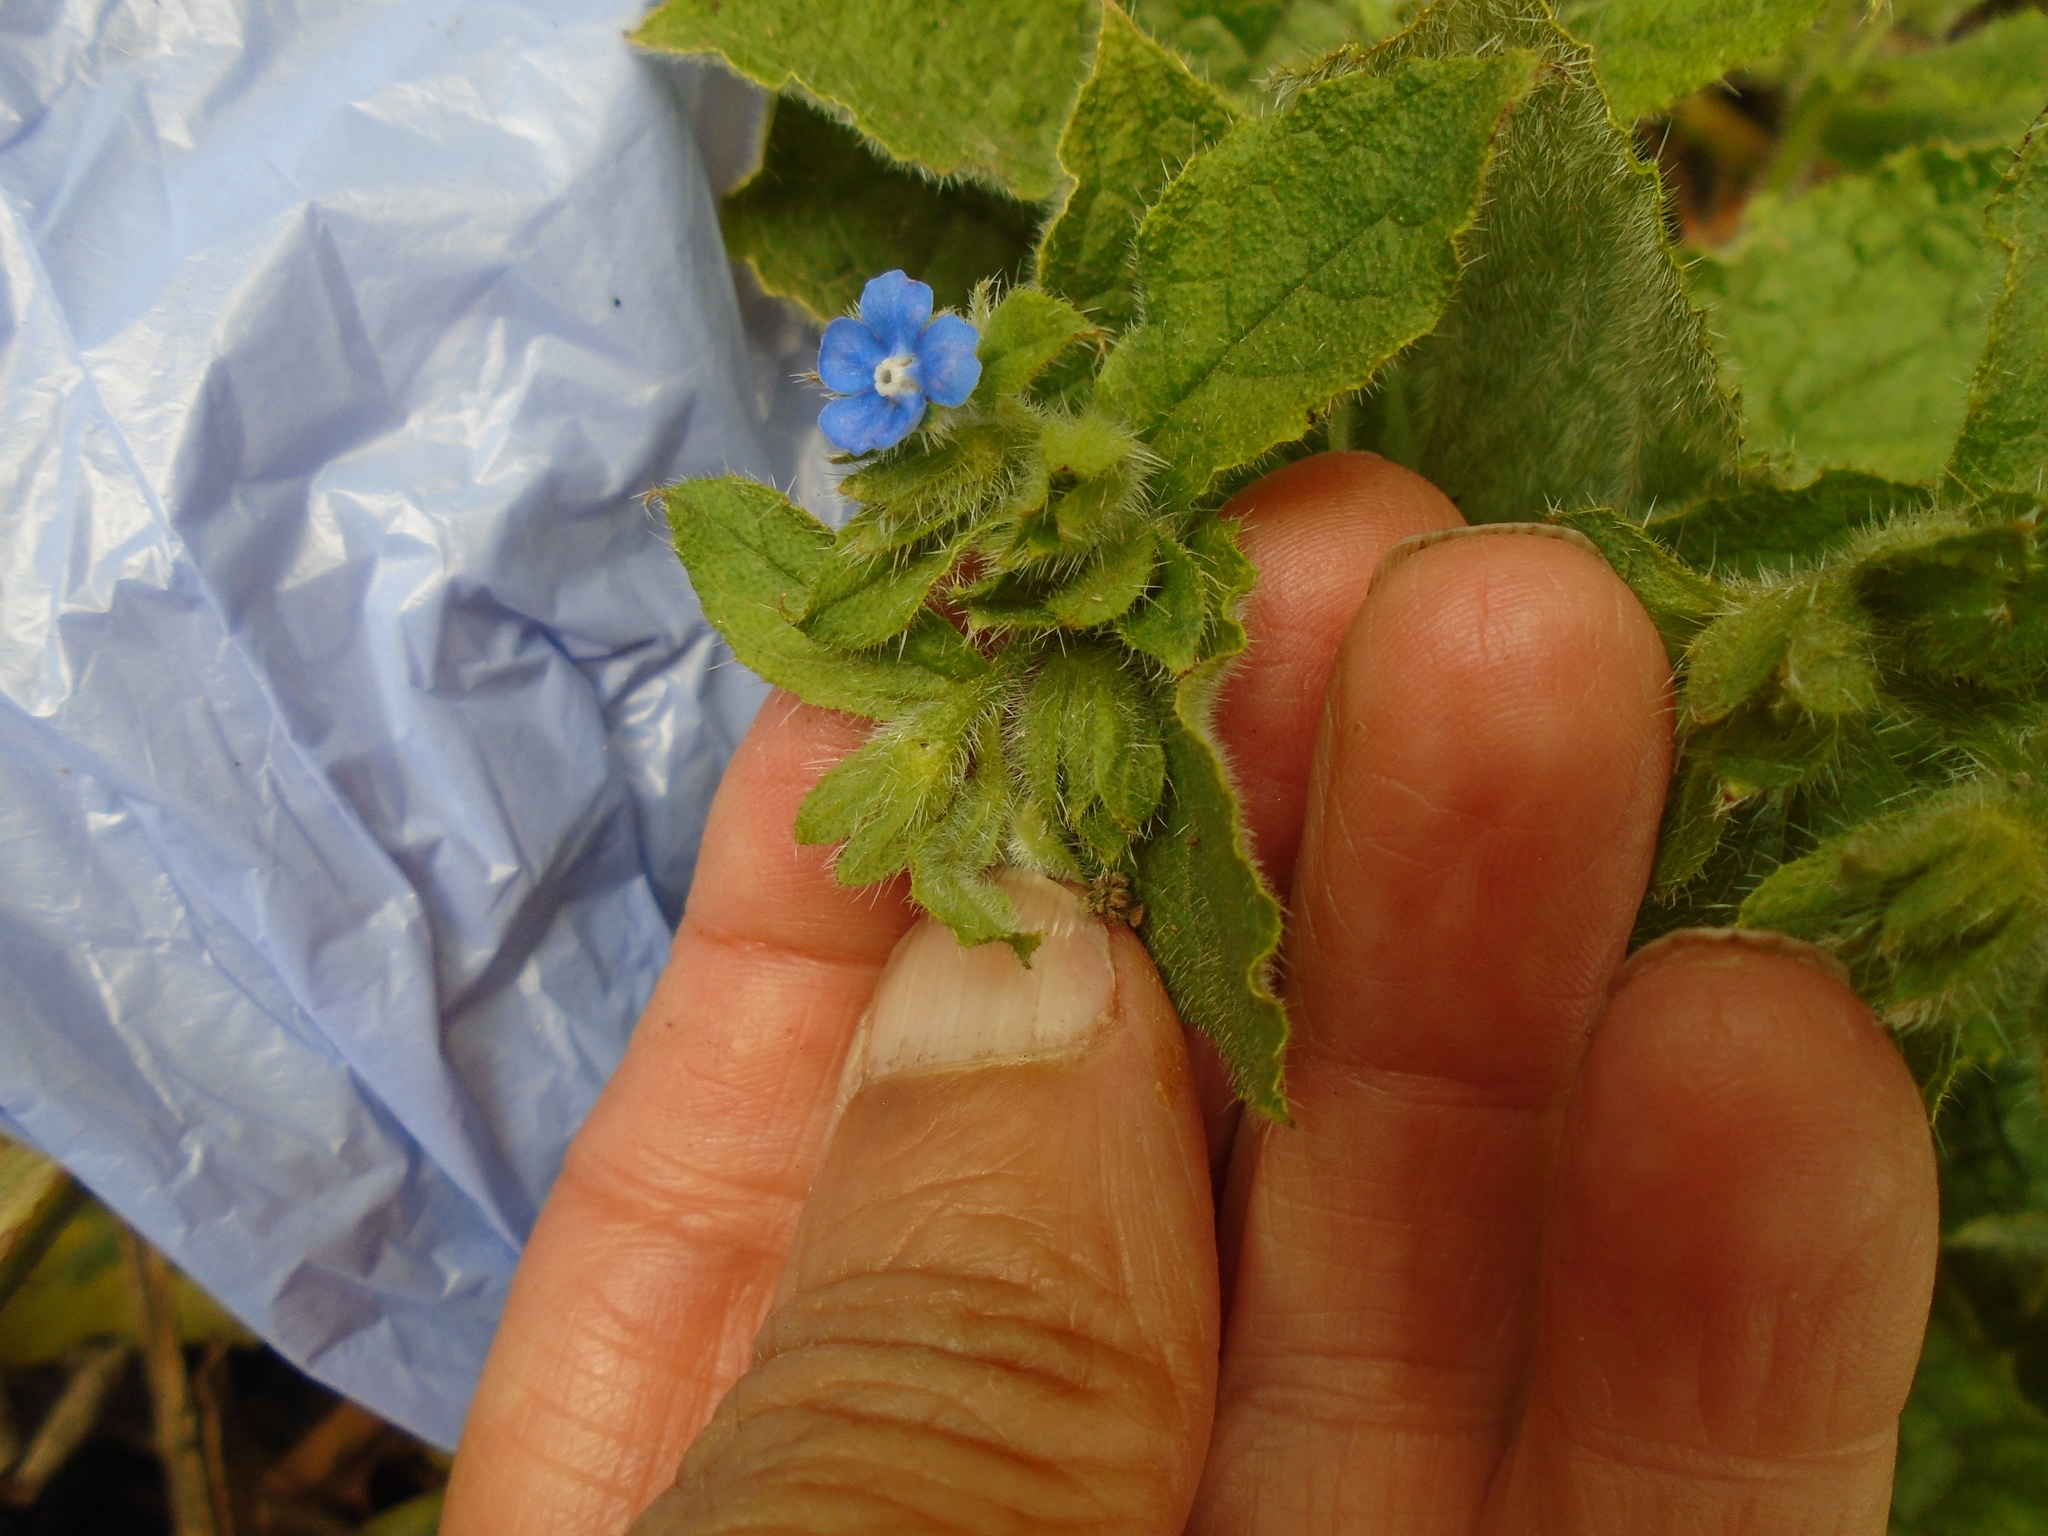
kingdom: Plantae
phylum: Tracheophyta
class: Magnoliopsida
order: Boraginales
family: Boraginaceae
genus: Pentaglottis
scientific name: Pentaglottis sempervirens
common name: Green alkanet
